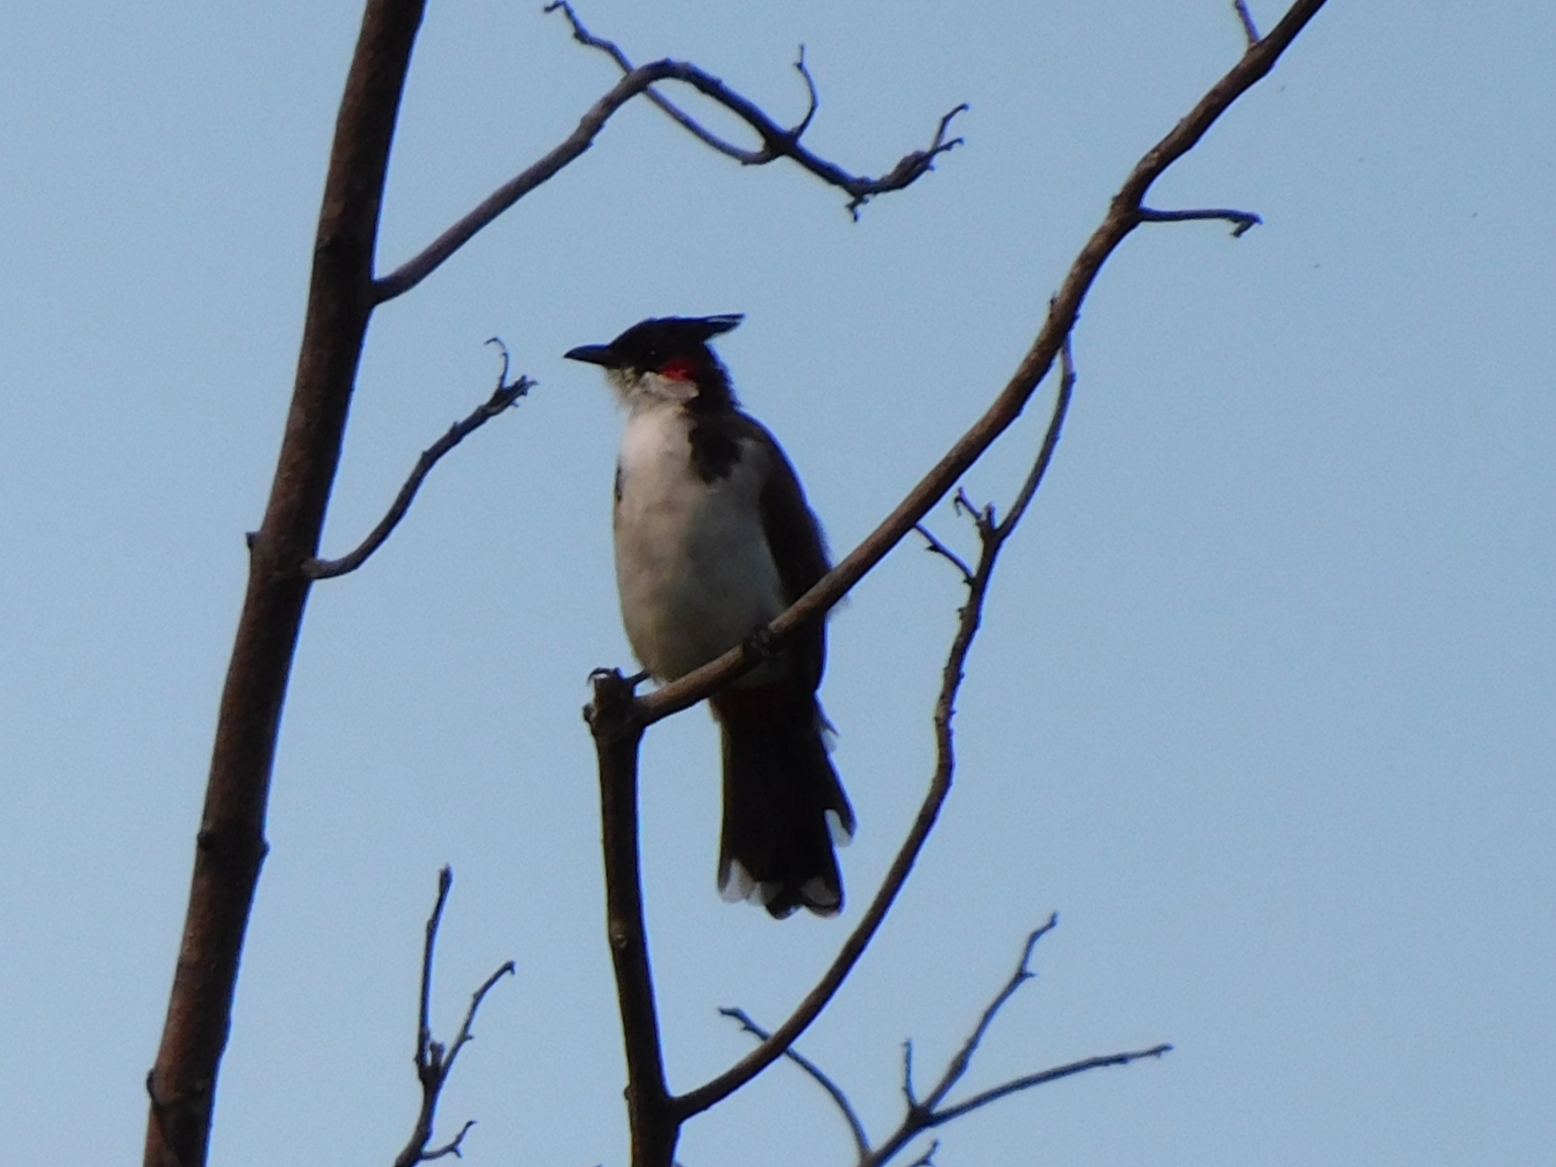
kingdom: Animalia
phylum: Chordata
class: Aves
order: Passeriformes
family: Pycnonotidae
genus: Pycnonotus
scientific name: Pycnonotus jocosus
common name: Red-whiskered bulbul
